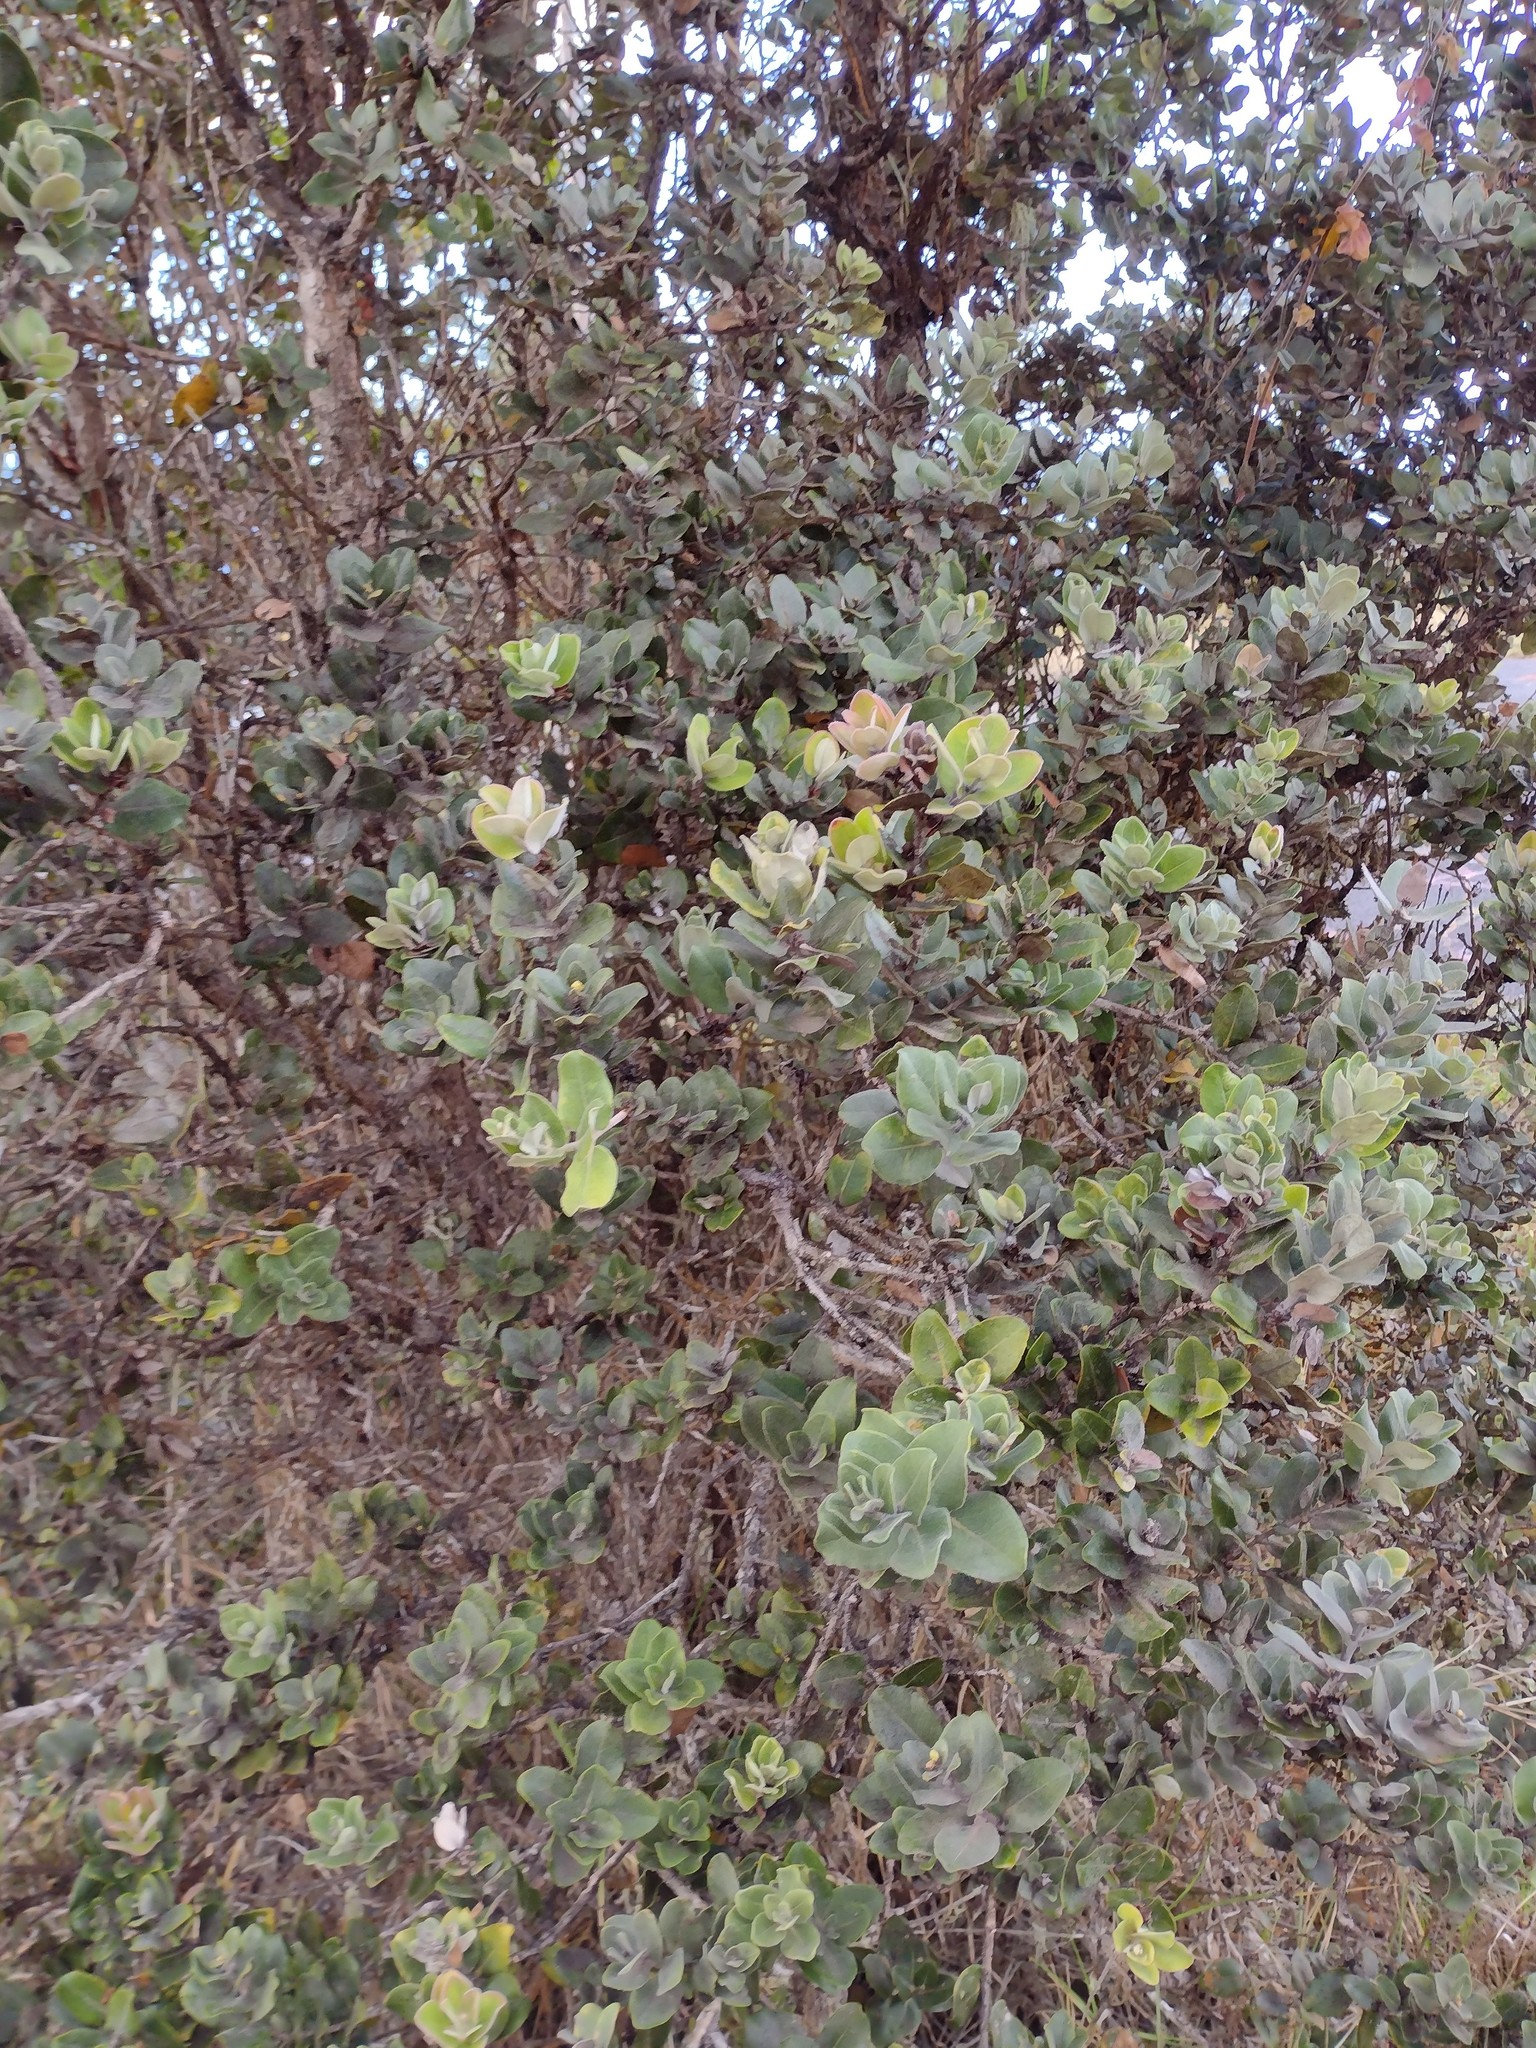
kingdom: Plantae
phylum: Tracheophyta
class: Magnoliopsida
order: Myrtales
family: Myrtaceae
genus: Metrosideros
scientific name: Metrosideros polymorpha
